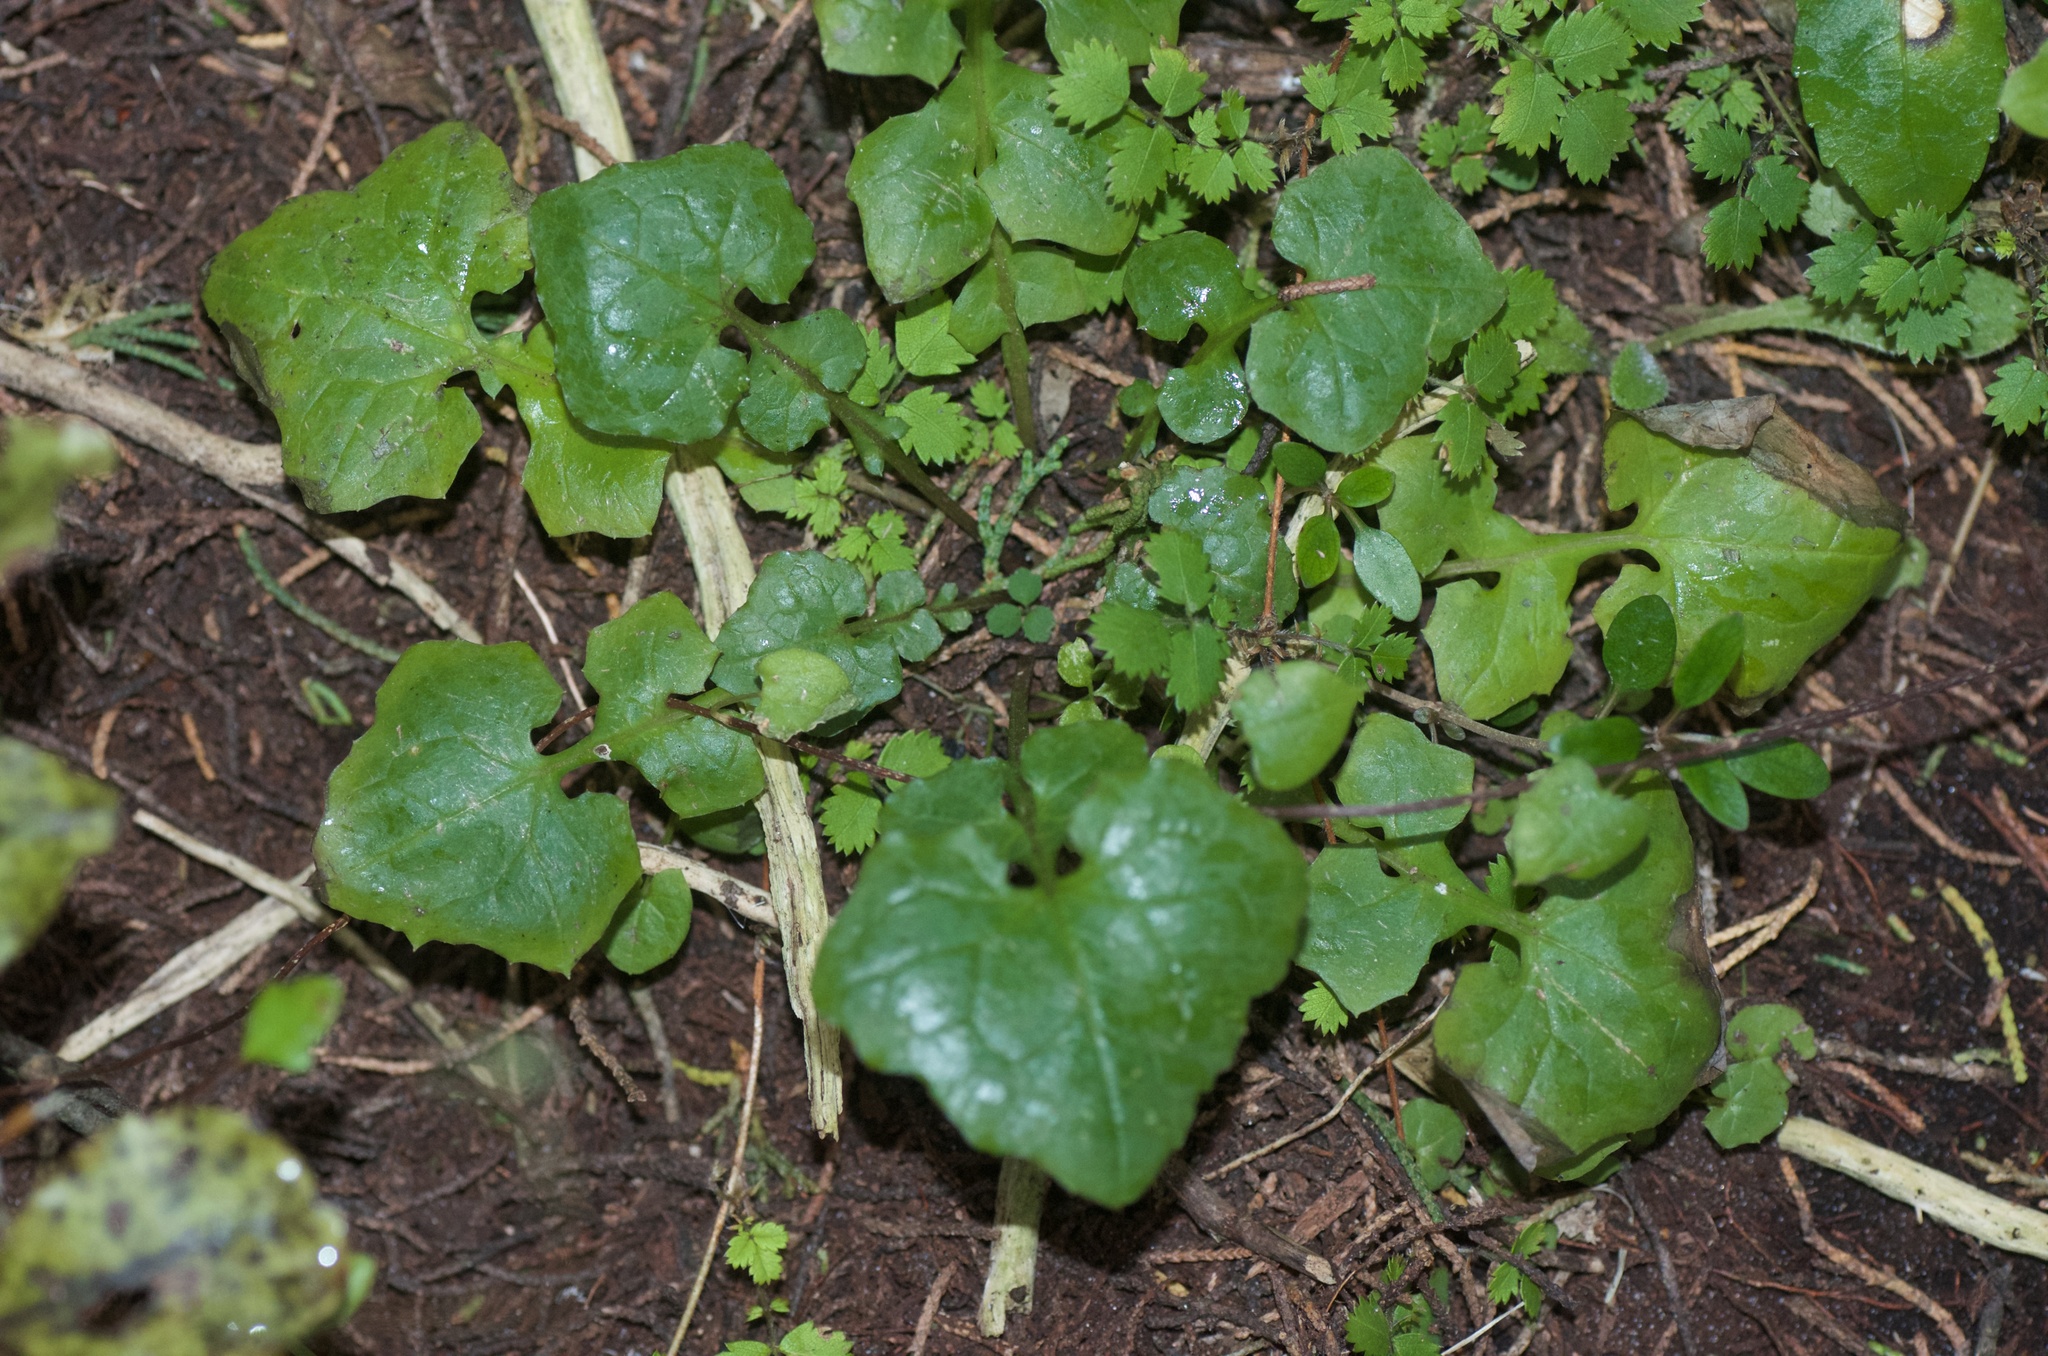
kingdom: Plantae
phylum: Tracheophyta
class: Magnoliopsida
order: Asterales
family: Asteraceae
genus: Mycelis
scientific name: Mycelis muralis
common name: Wall lettuce
